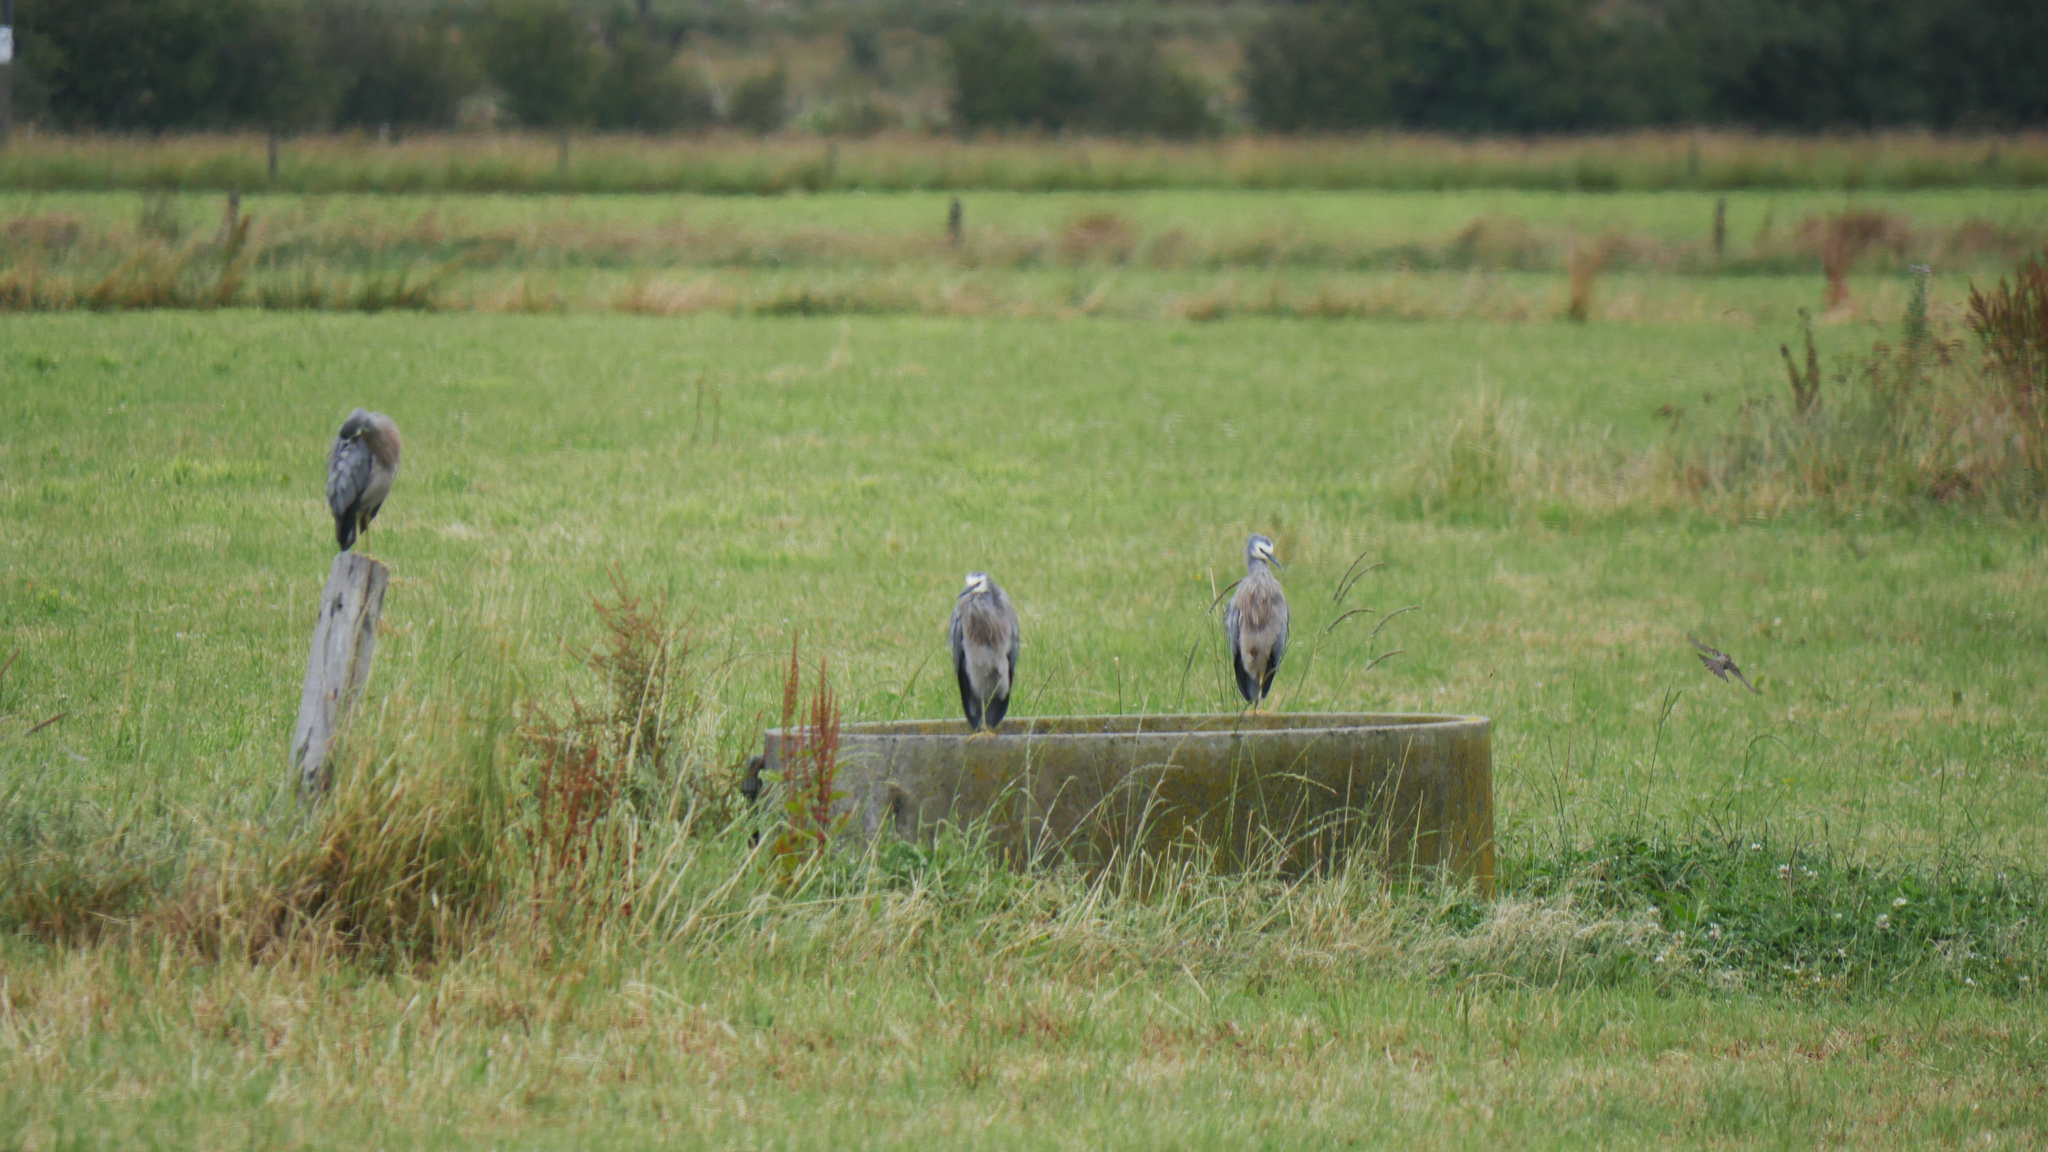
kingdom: Animalia
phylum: Chordata
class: Aves
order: Pelecaniformes
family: Ardeidae
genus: Egretta
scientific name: Egretta novaehollandiae
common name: White-faced heron
